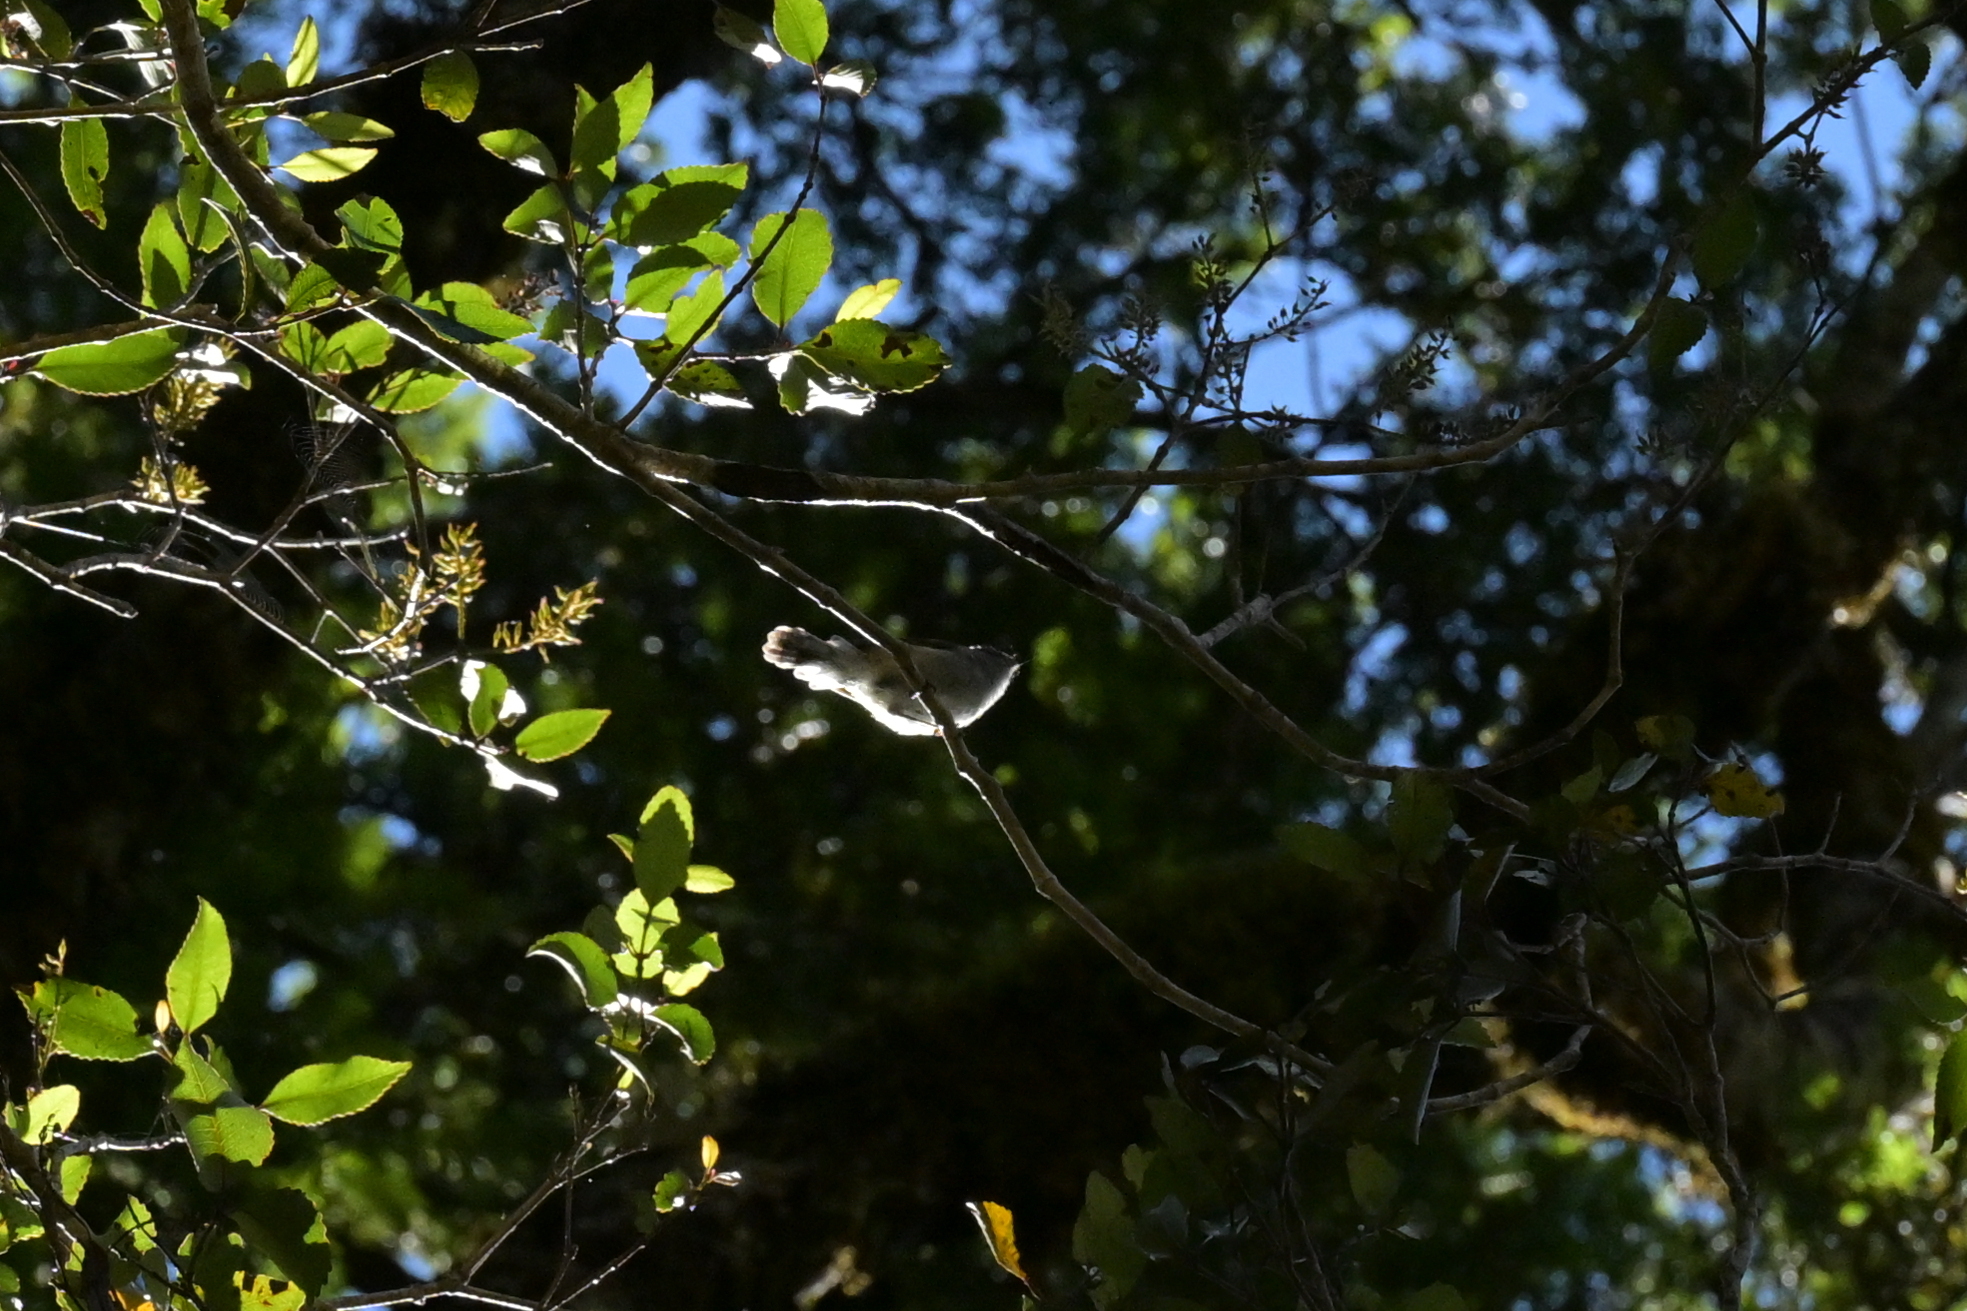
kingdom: Animalia
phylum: Chordata
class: Aves
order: Passeriformes
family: Acanthizidae
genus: Gerygone
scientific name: Gerygone igata
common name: Grey gerygone
